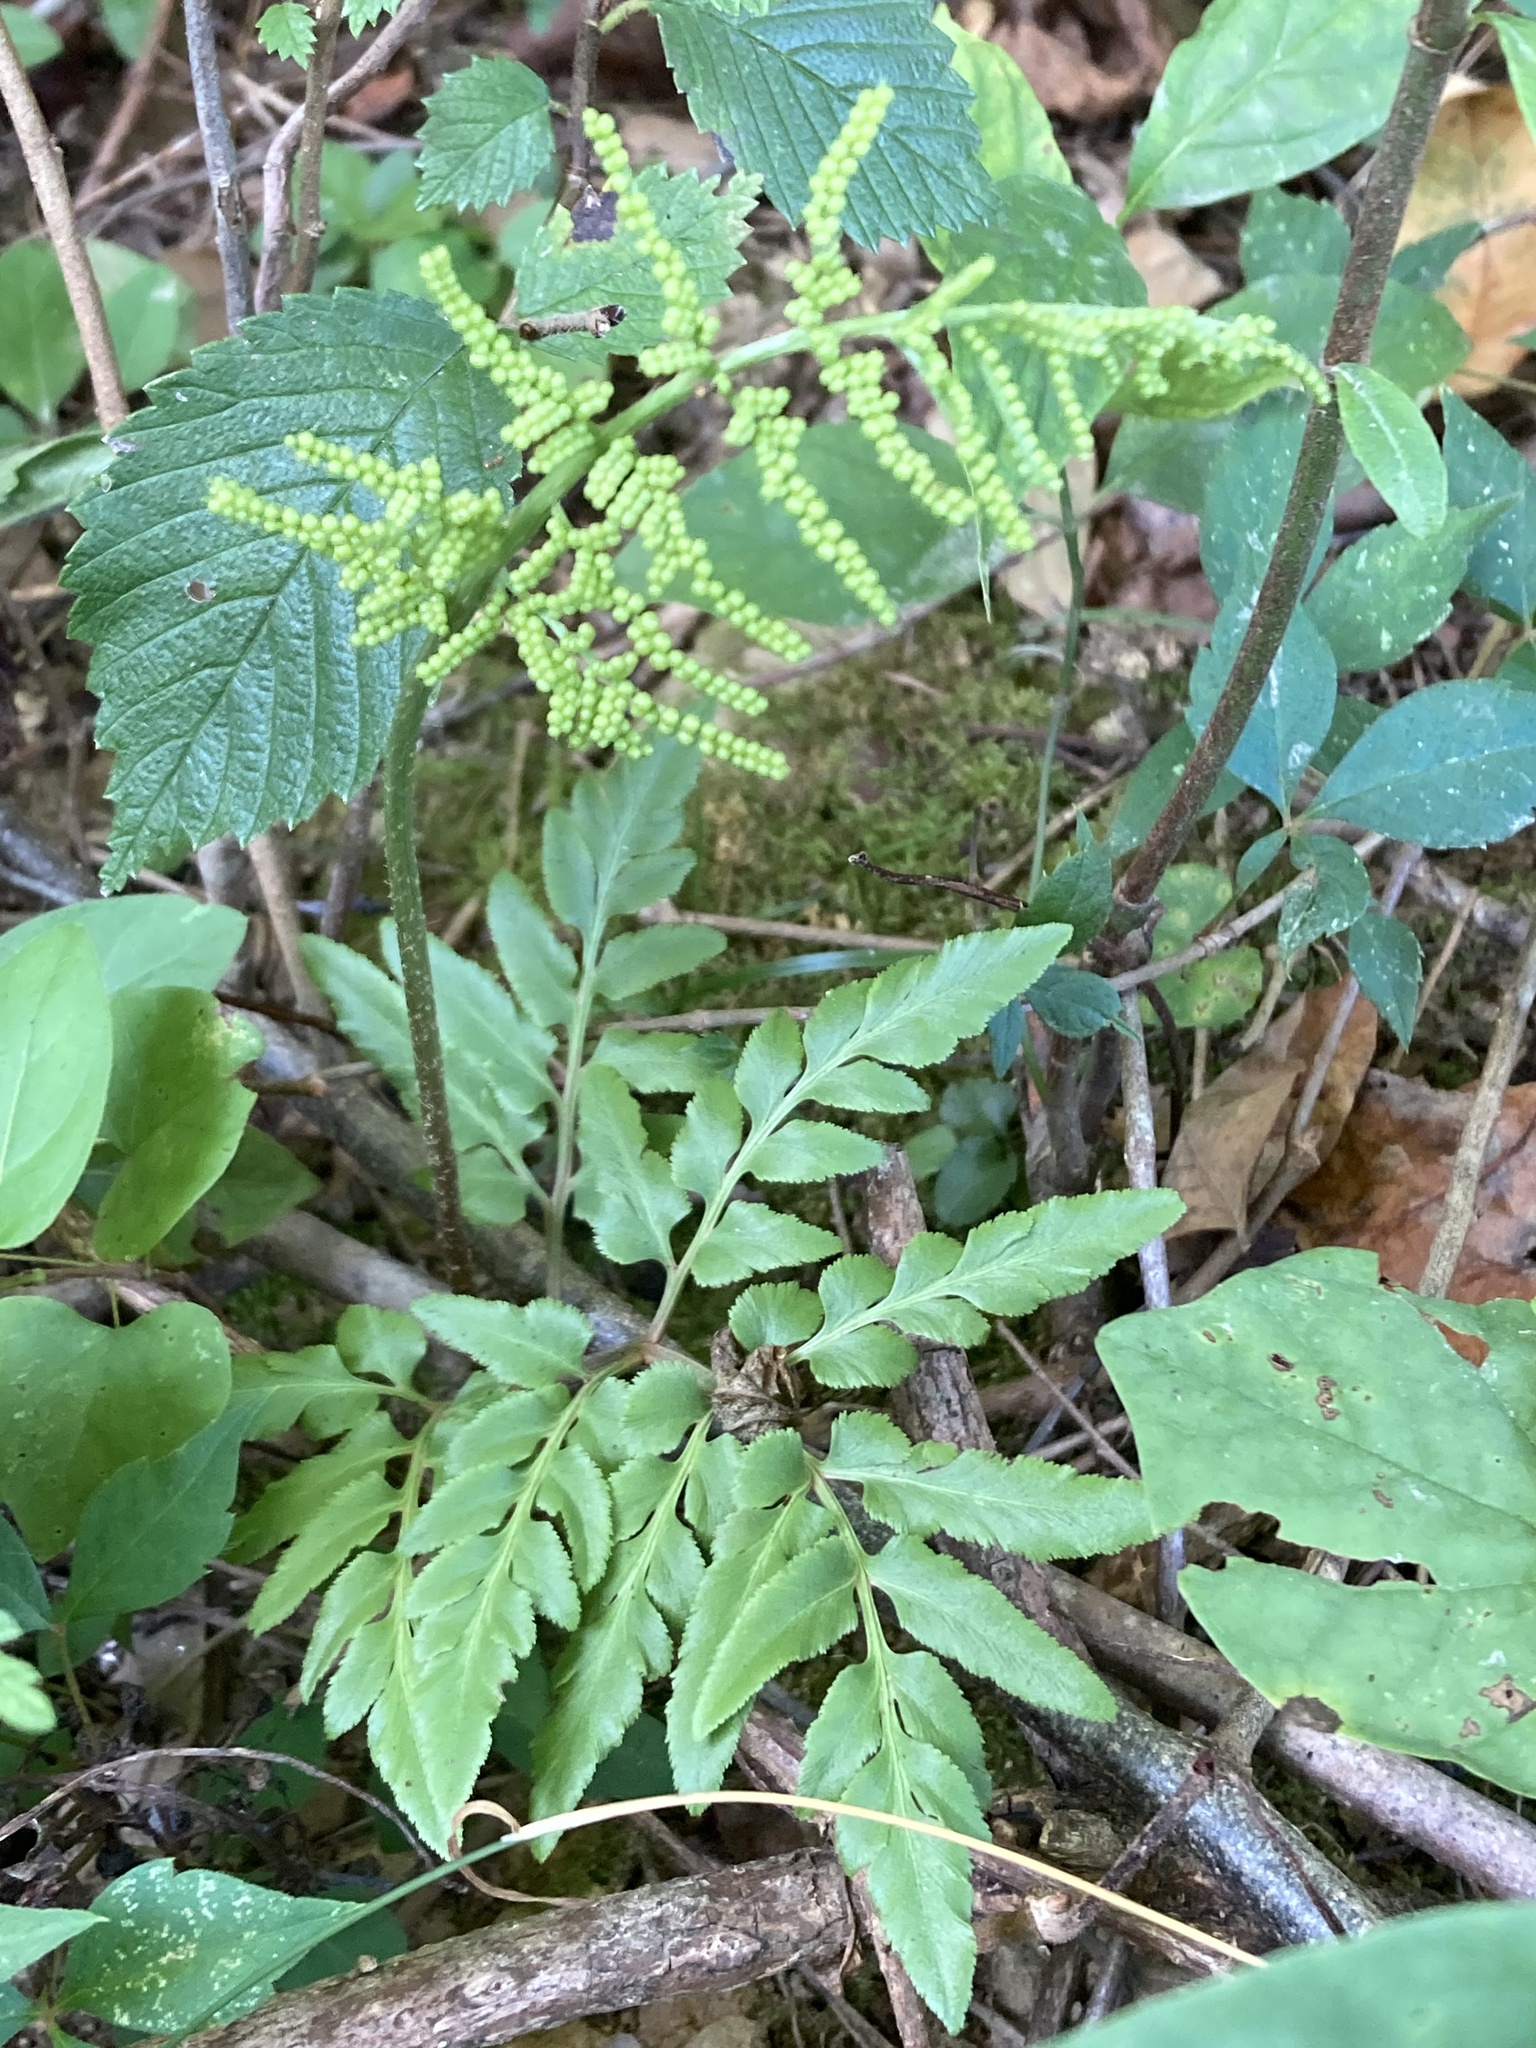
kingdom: Plantae
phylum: Tracheophyta
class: Polypodiopsida
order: Ophioglossales
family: Ophioglossaceae
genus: Sceptridium
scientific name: Sceptridium dissectum
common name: Cut-leaved grapefern
